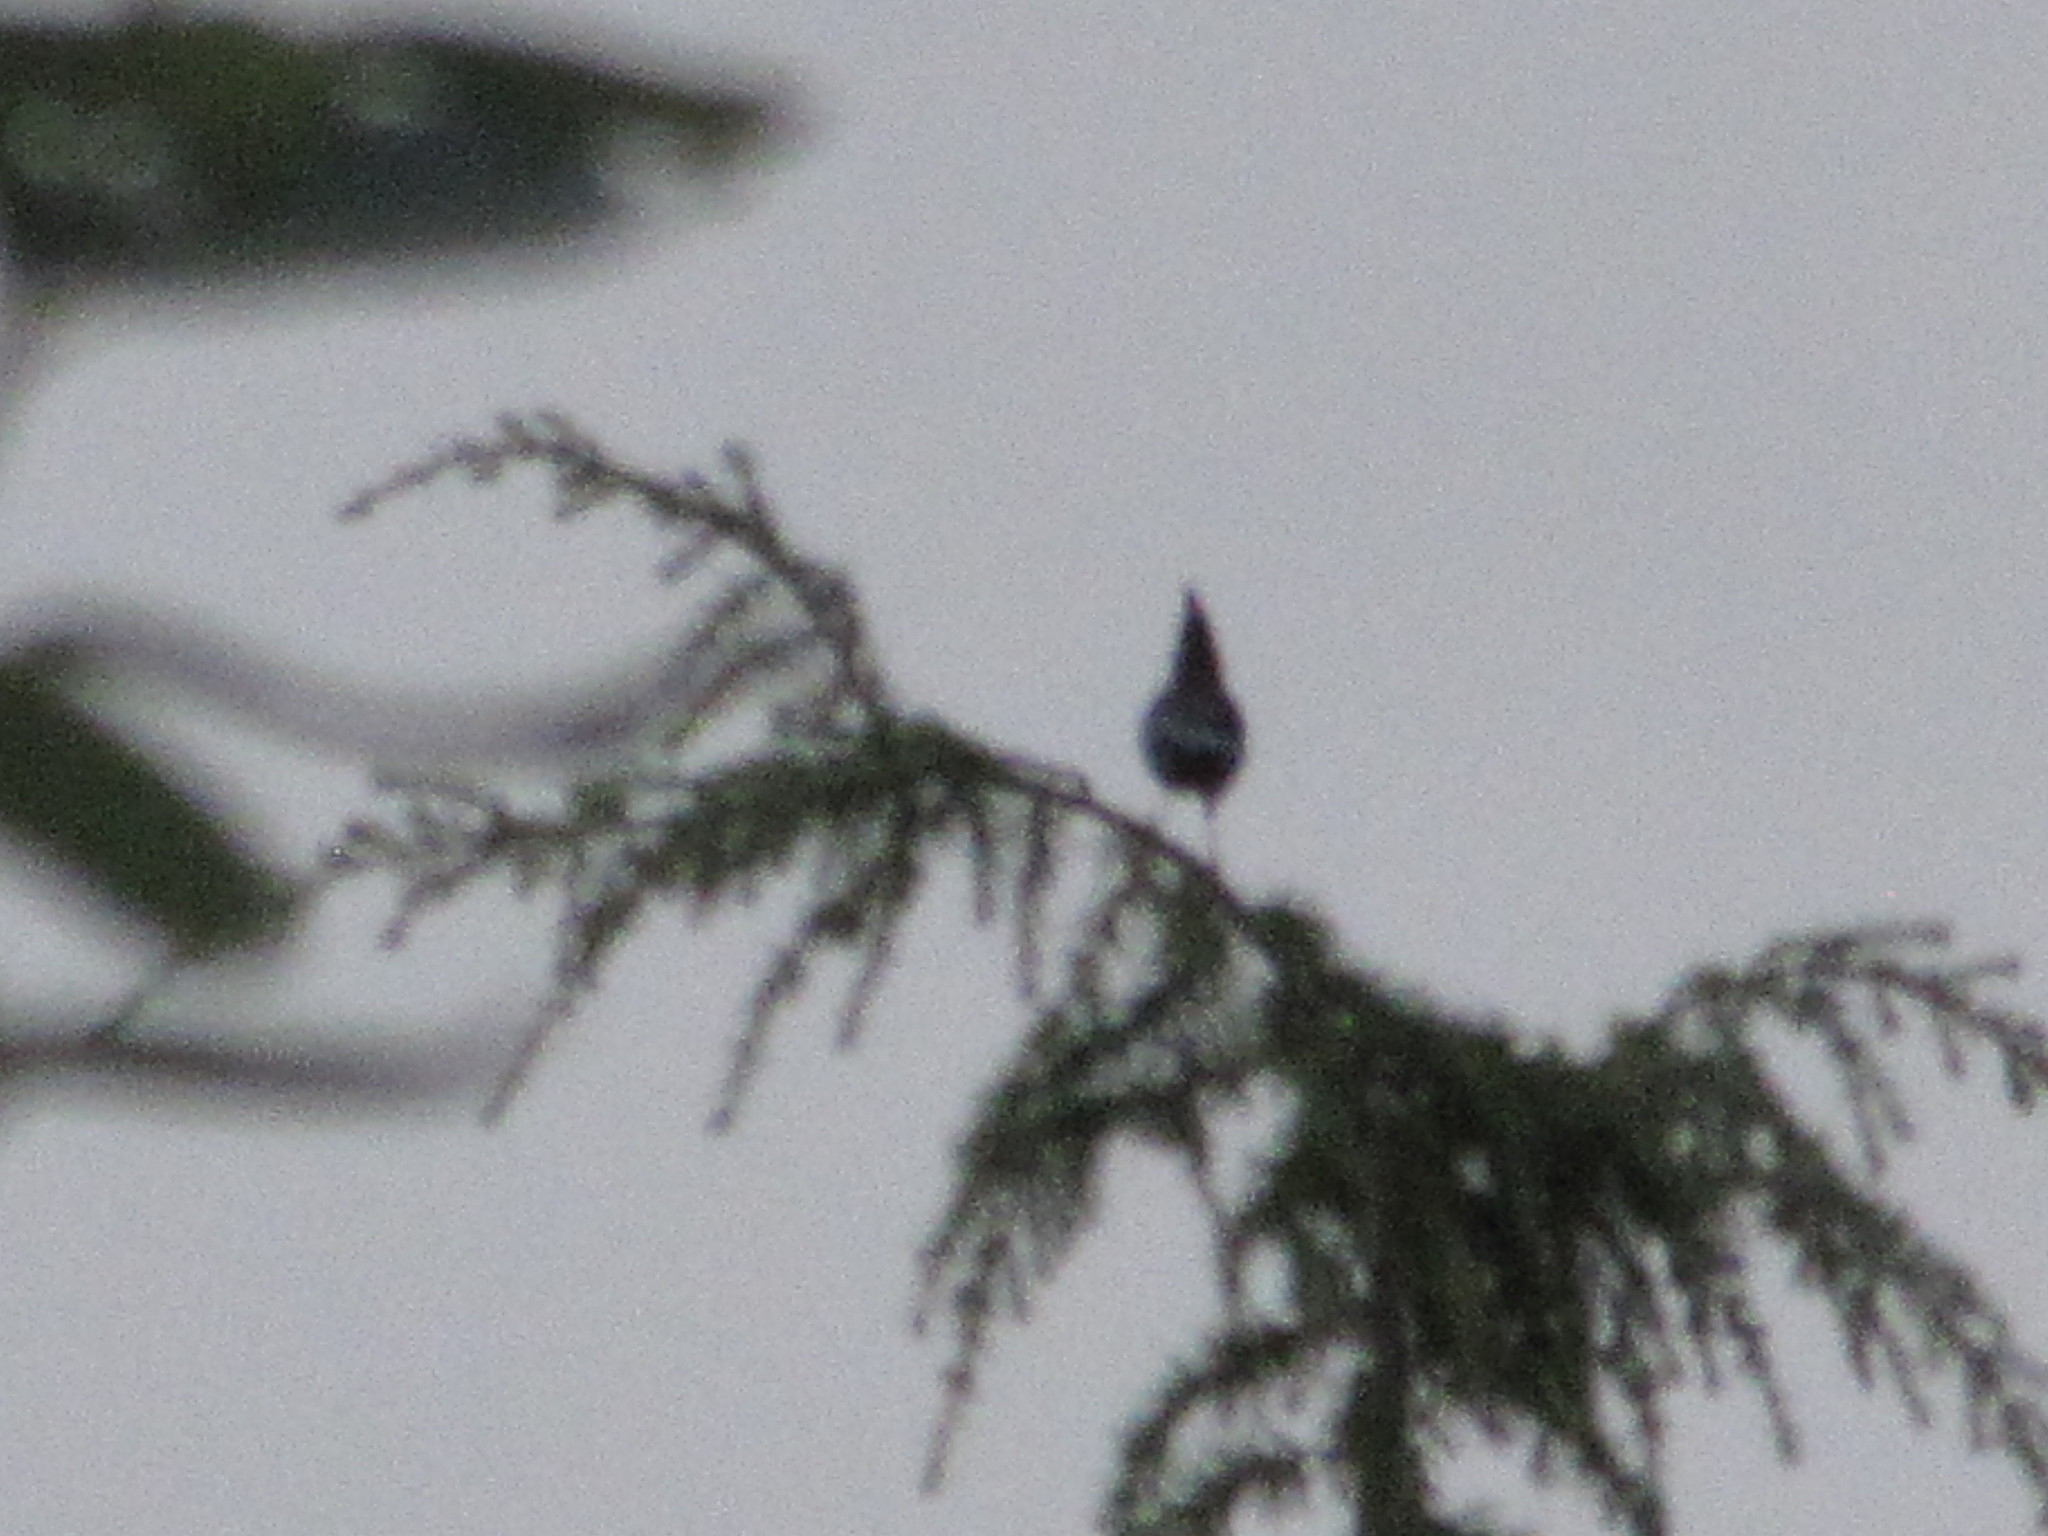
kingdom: Animalia
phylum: Chordata
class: Aves
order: Passeriformes
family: Corvidae
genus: Cyanocitta
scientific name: Cyanocitta stelleri
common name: Steller's jay
